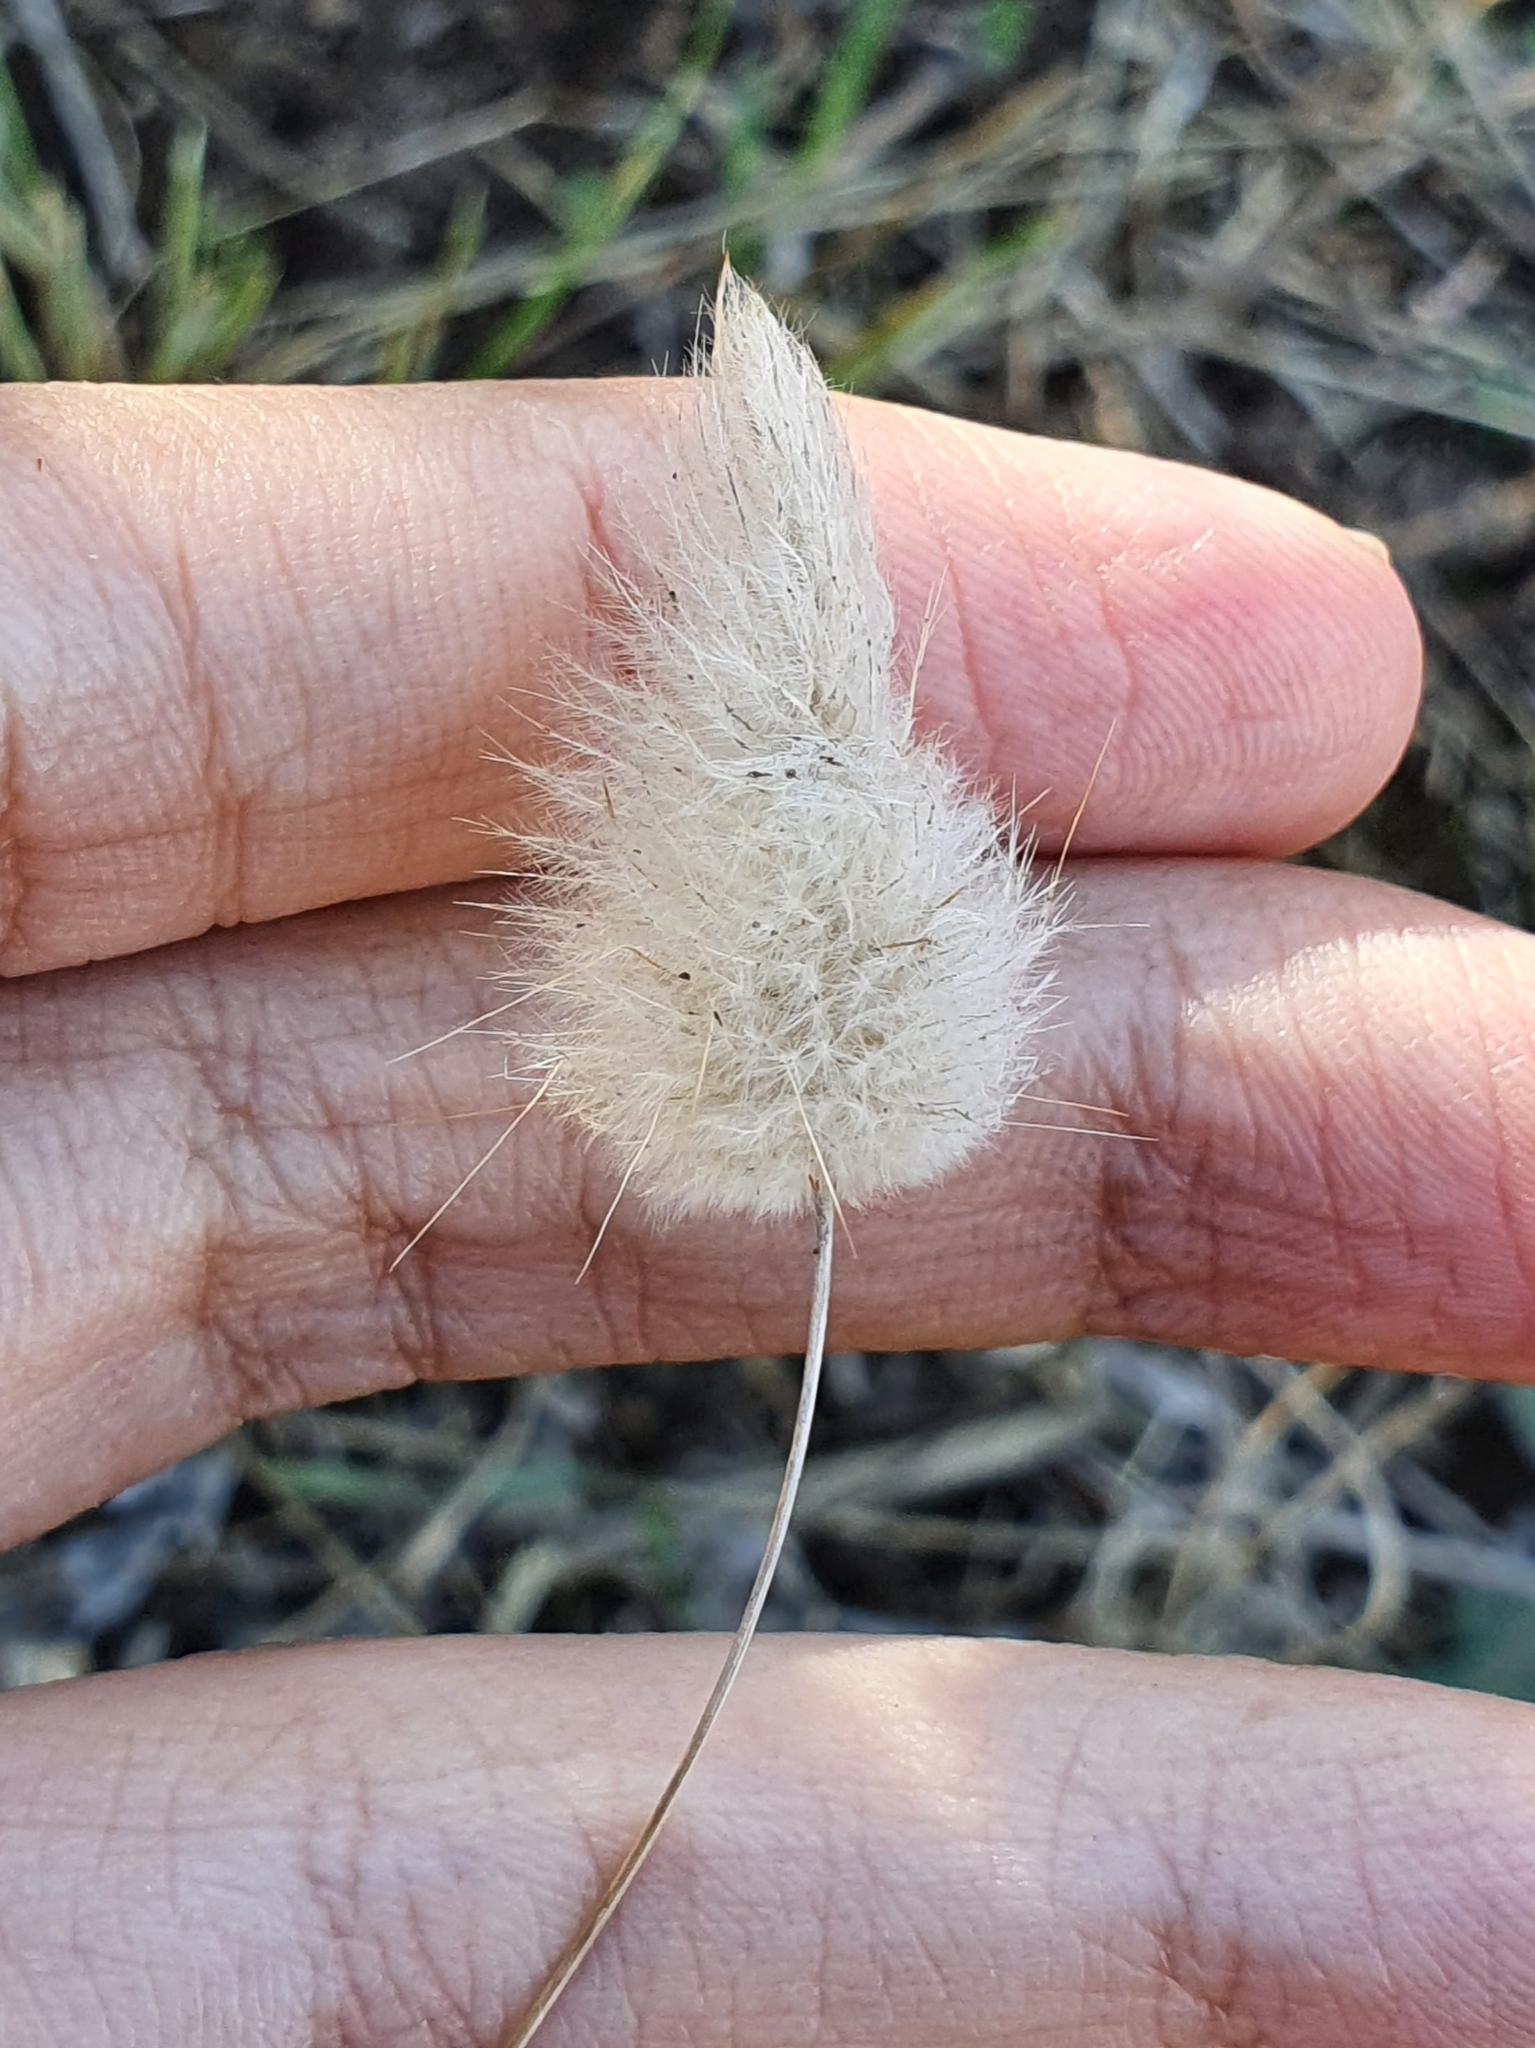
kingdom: Plantae
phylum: Tracheophyta
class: Liliopsida
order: Poales
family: Poaceae
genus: Lagurus
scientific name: Lagurus ovatus
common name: Hare's-tail
